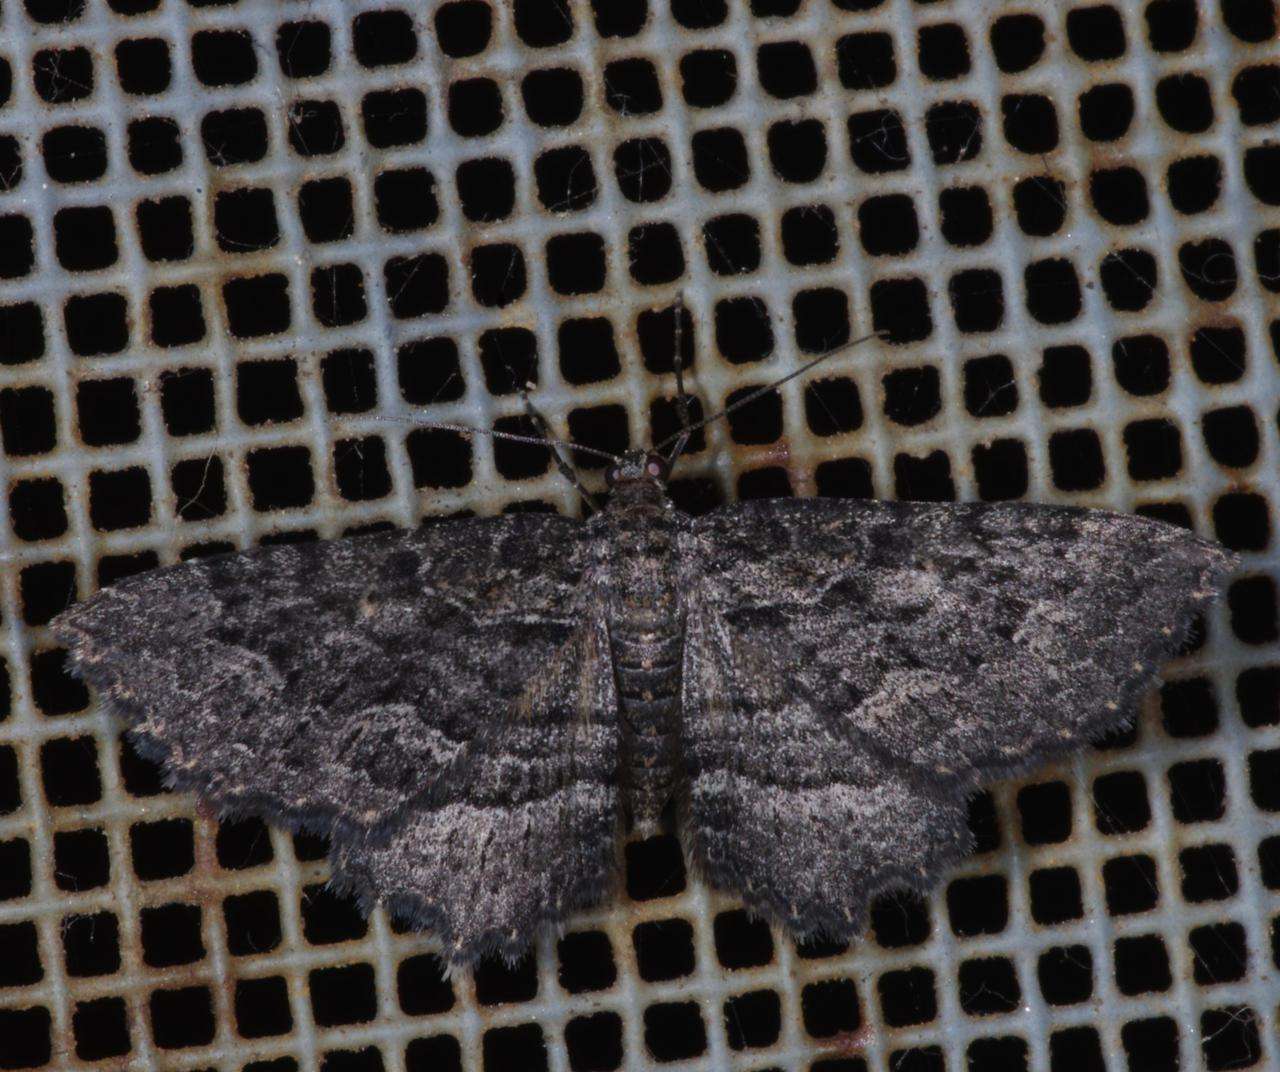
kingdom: Animalia
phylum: Arthropoda
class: Insecta
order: Lepidoptera
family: Geometridae
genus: Eccymatoge
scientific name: Eccymatoge morphna
